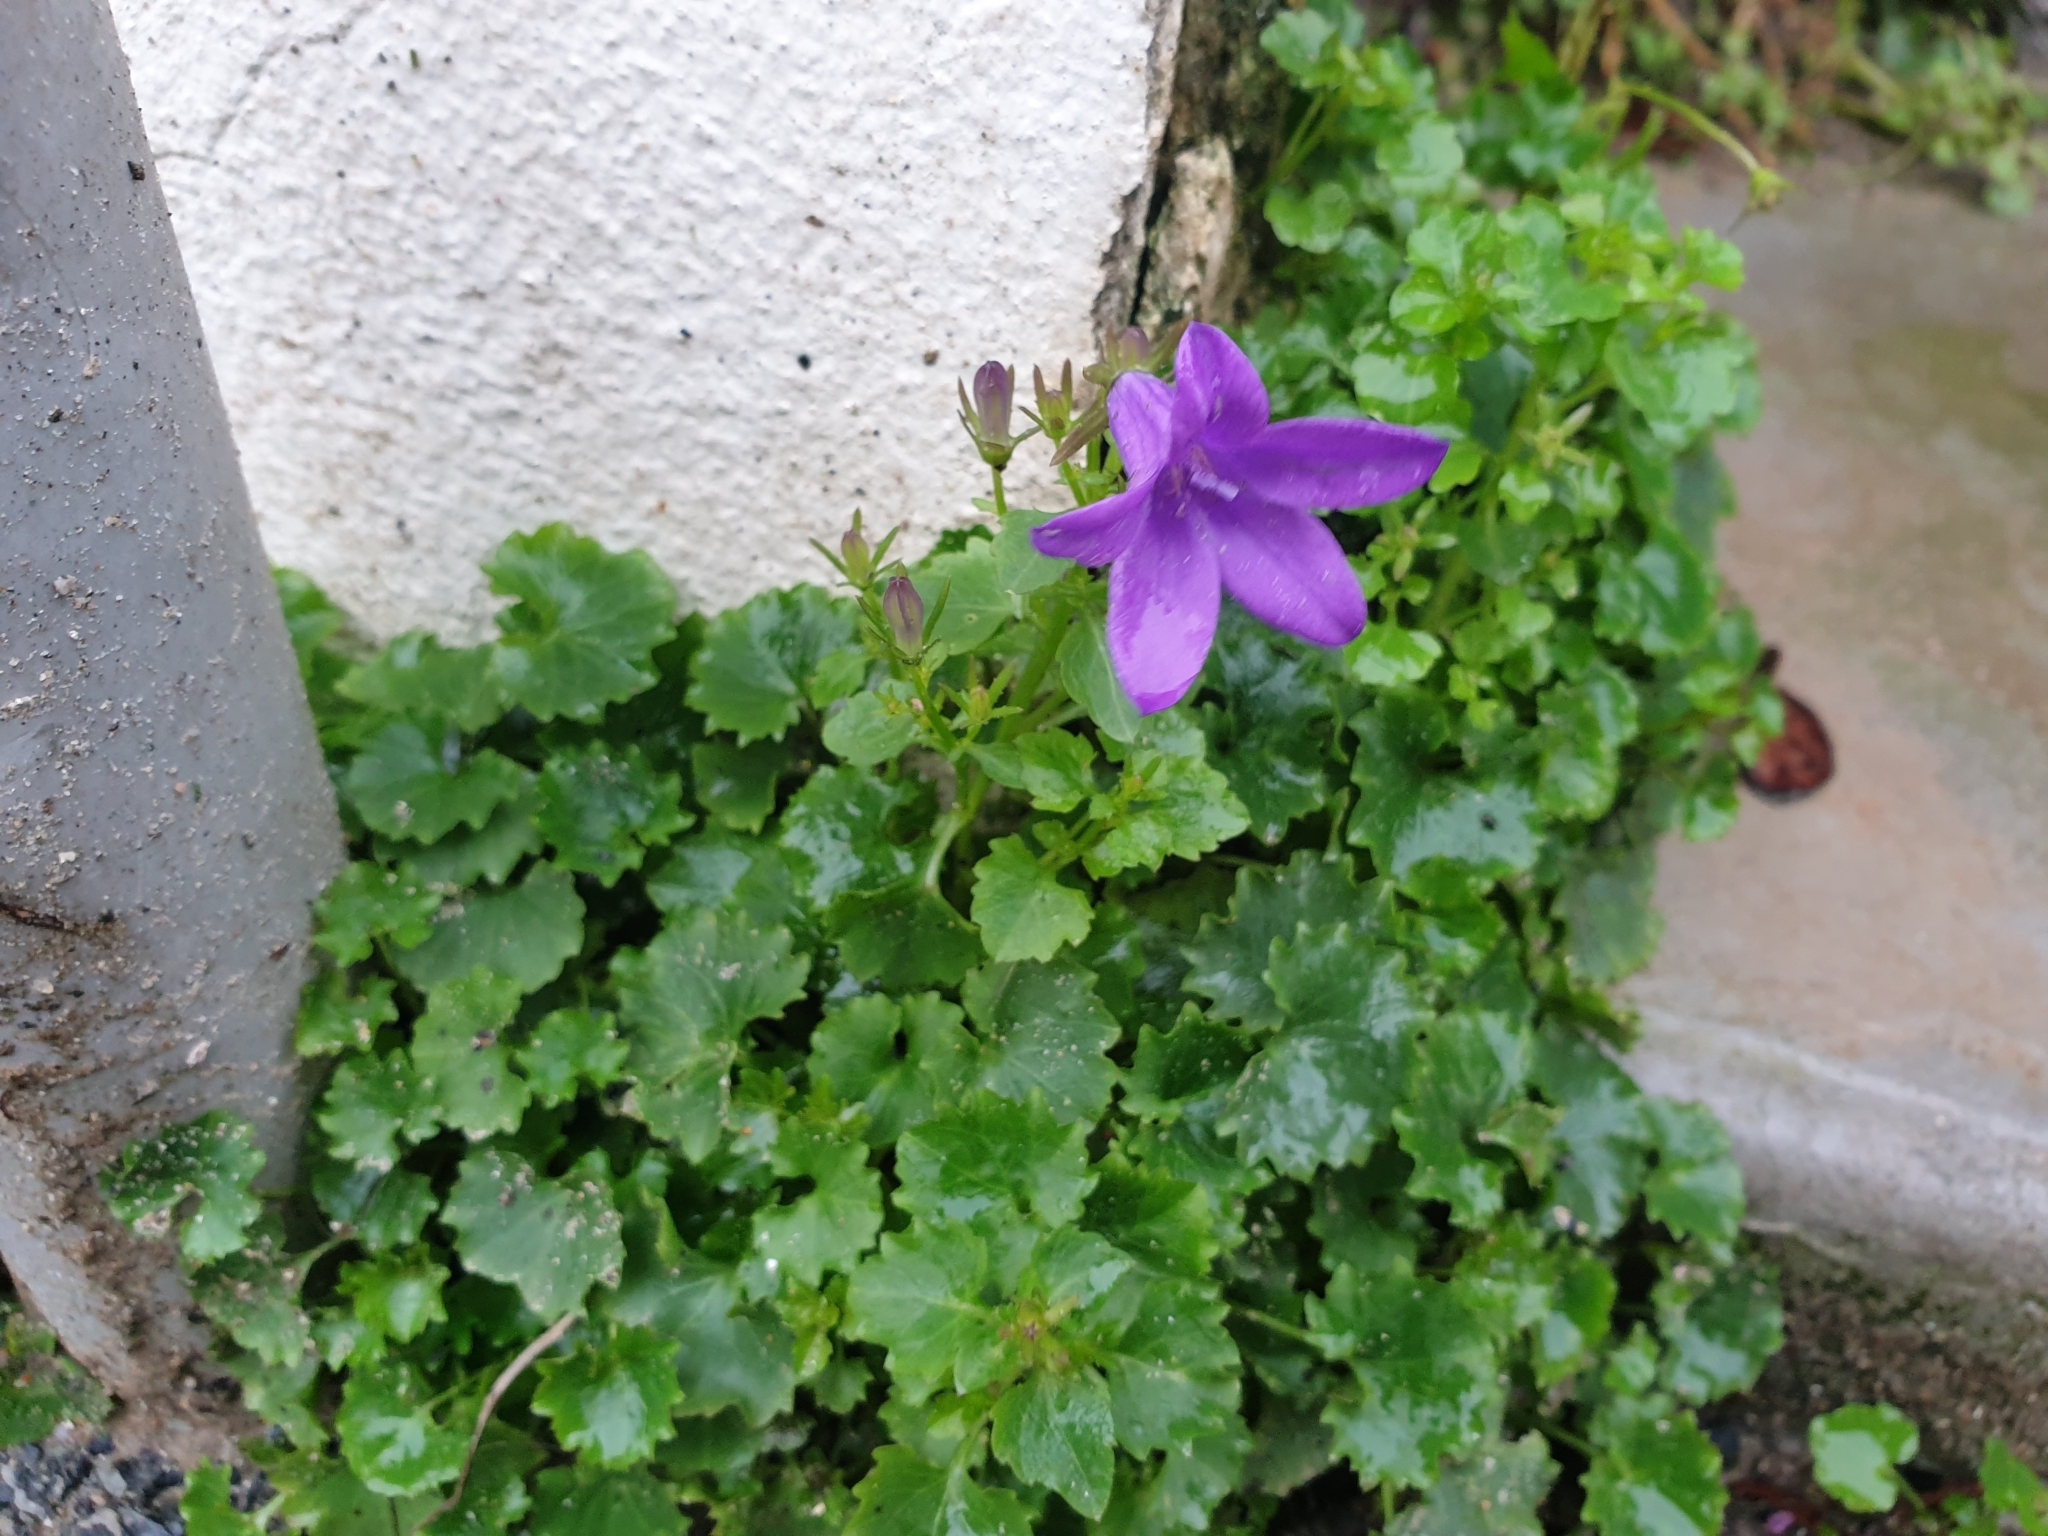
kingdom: Plantae
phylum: Tracheophyta
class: Magnoliopsida
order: Asterales
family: Campanulaceae
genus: Campanula
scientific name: Campanula portenschlagiana
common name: Adria bellflower
